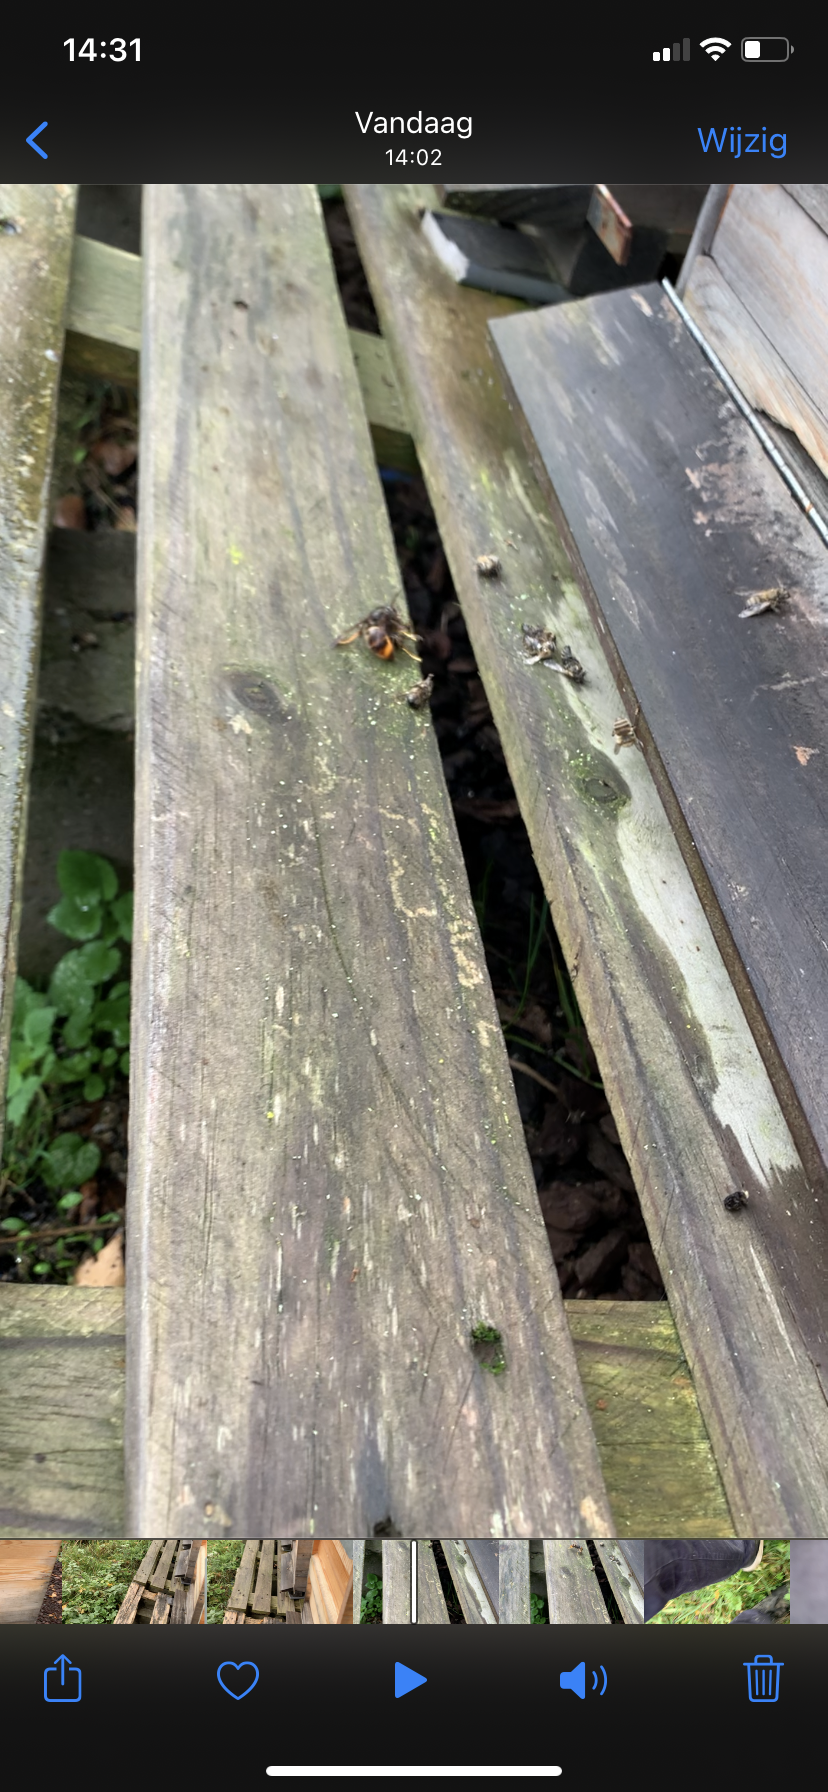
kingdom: Animalia
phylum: Arthropoda
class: Insecta
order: Hymenoptera
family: Vespidae
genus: Vespa
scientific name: Vespa velutina
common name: Asian hornet
